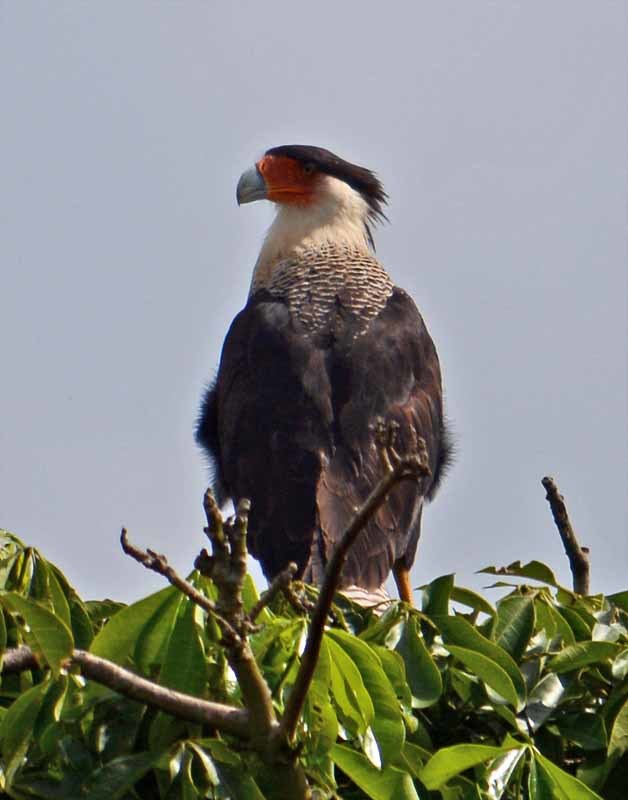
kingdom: Animalia
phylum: Chordata
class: Aves
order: Falconiformes
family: Falconidae
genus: Caracara
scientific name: Caracara plancus
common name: Southern caracara
